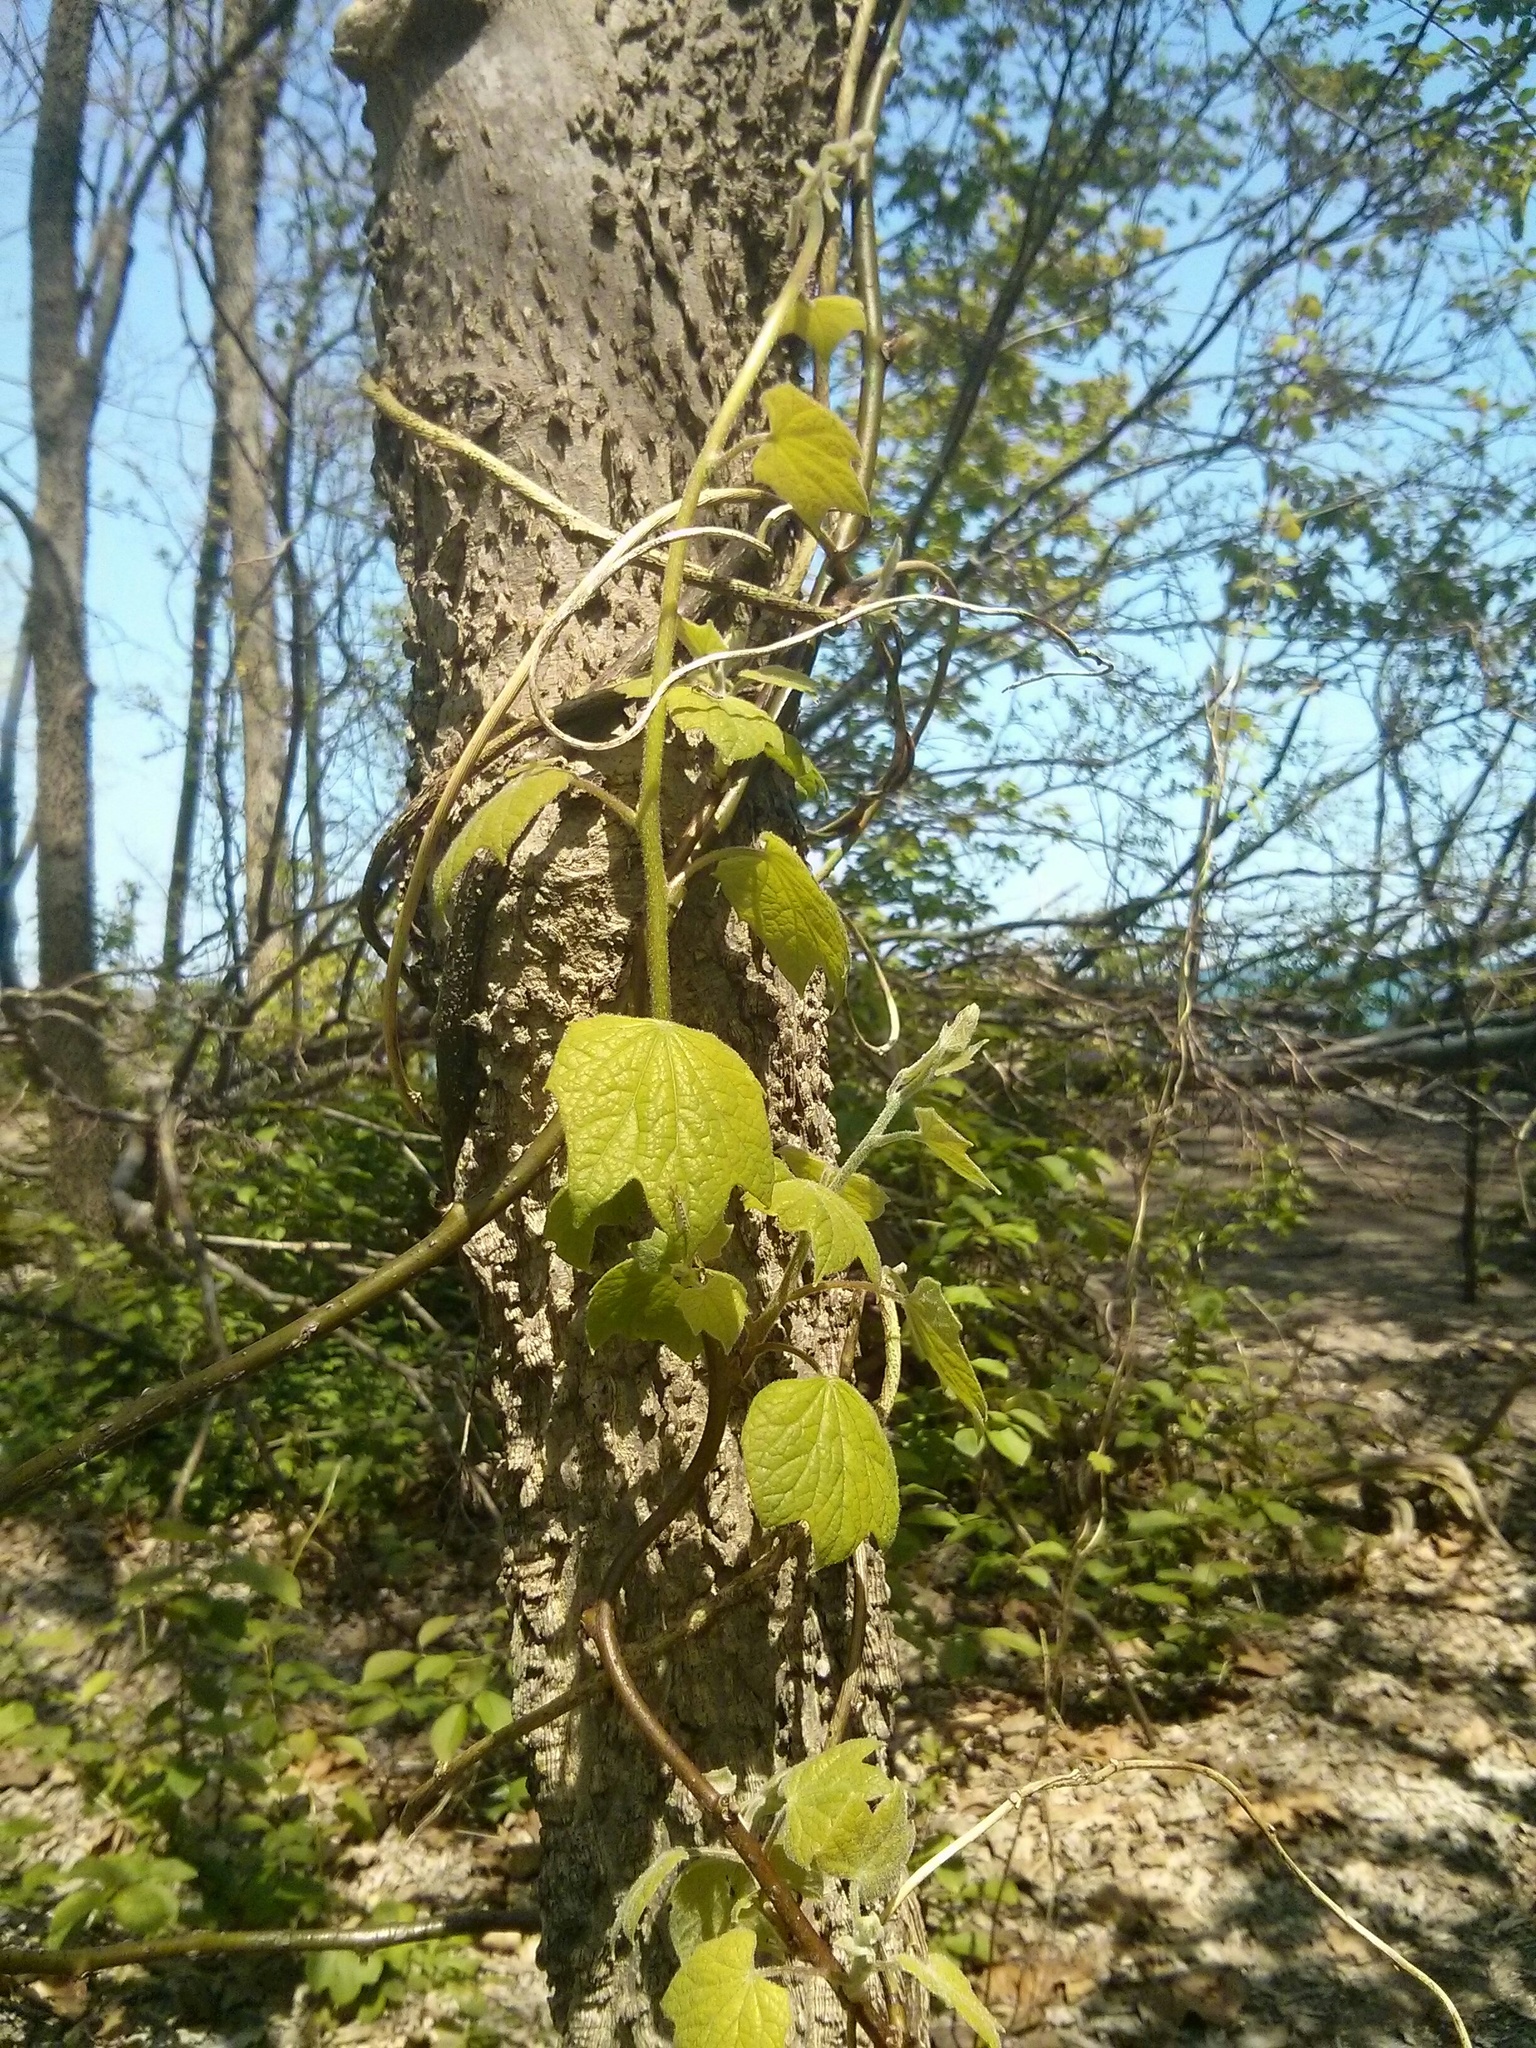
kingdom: Plantae
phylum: Tracheophyta
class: Magnoliopsida
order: Ranunculales
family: Menispermaceae
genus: Menispermum
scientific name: Menispermum canadense
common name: Moonseed
